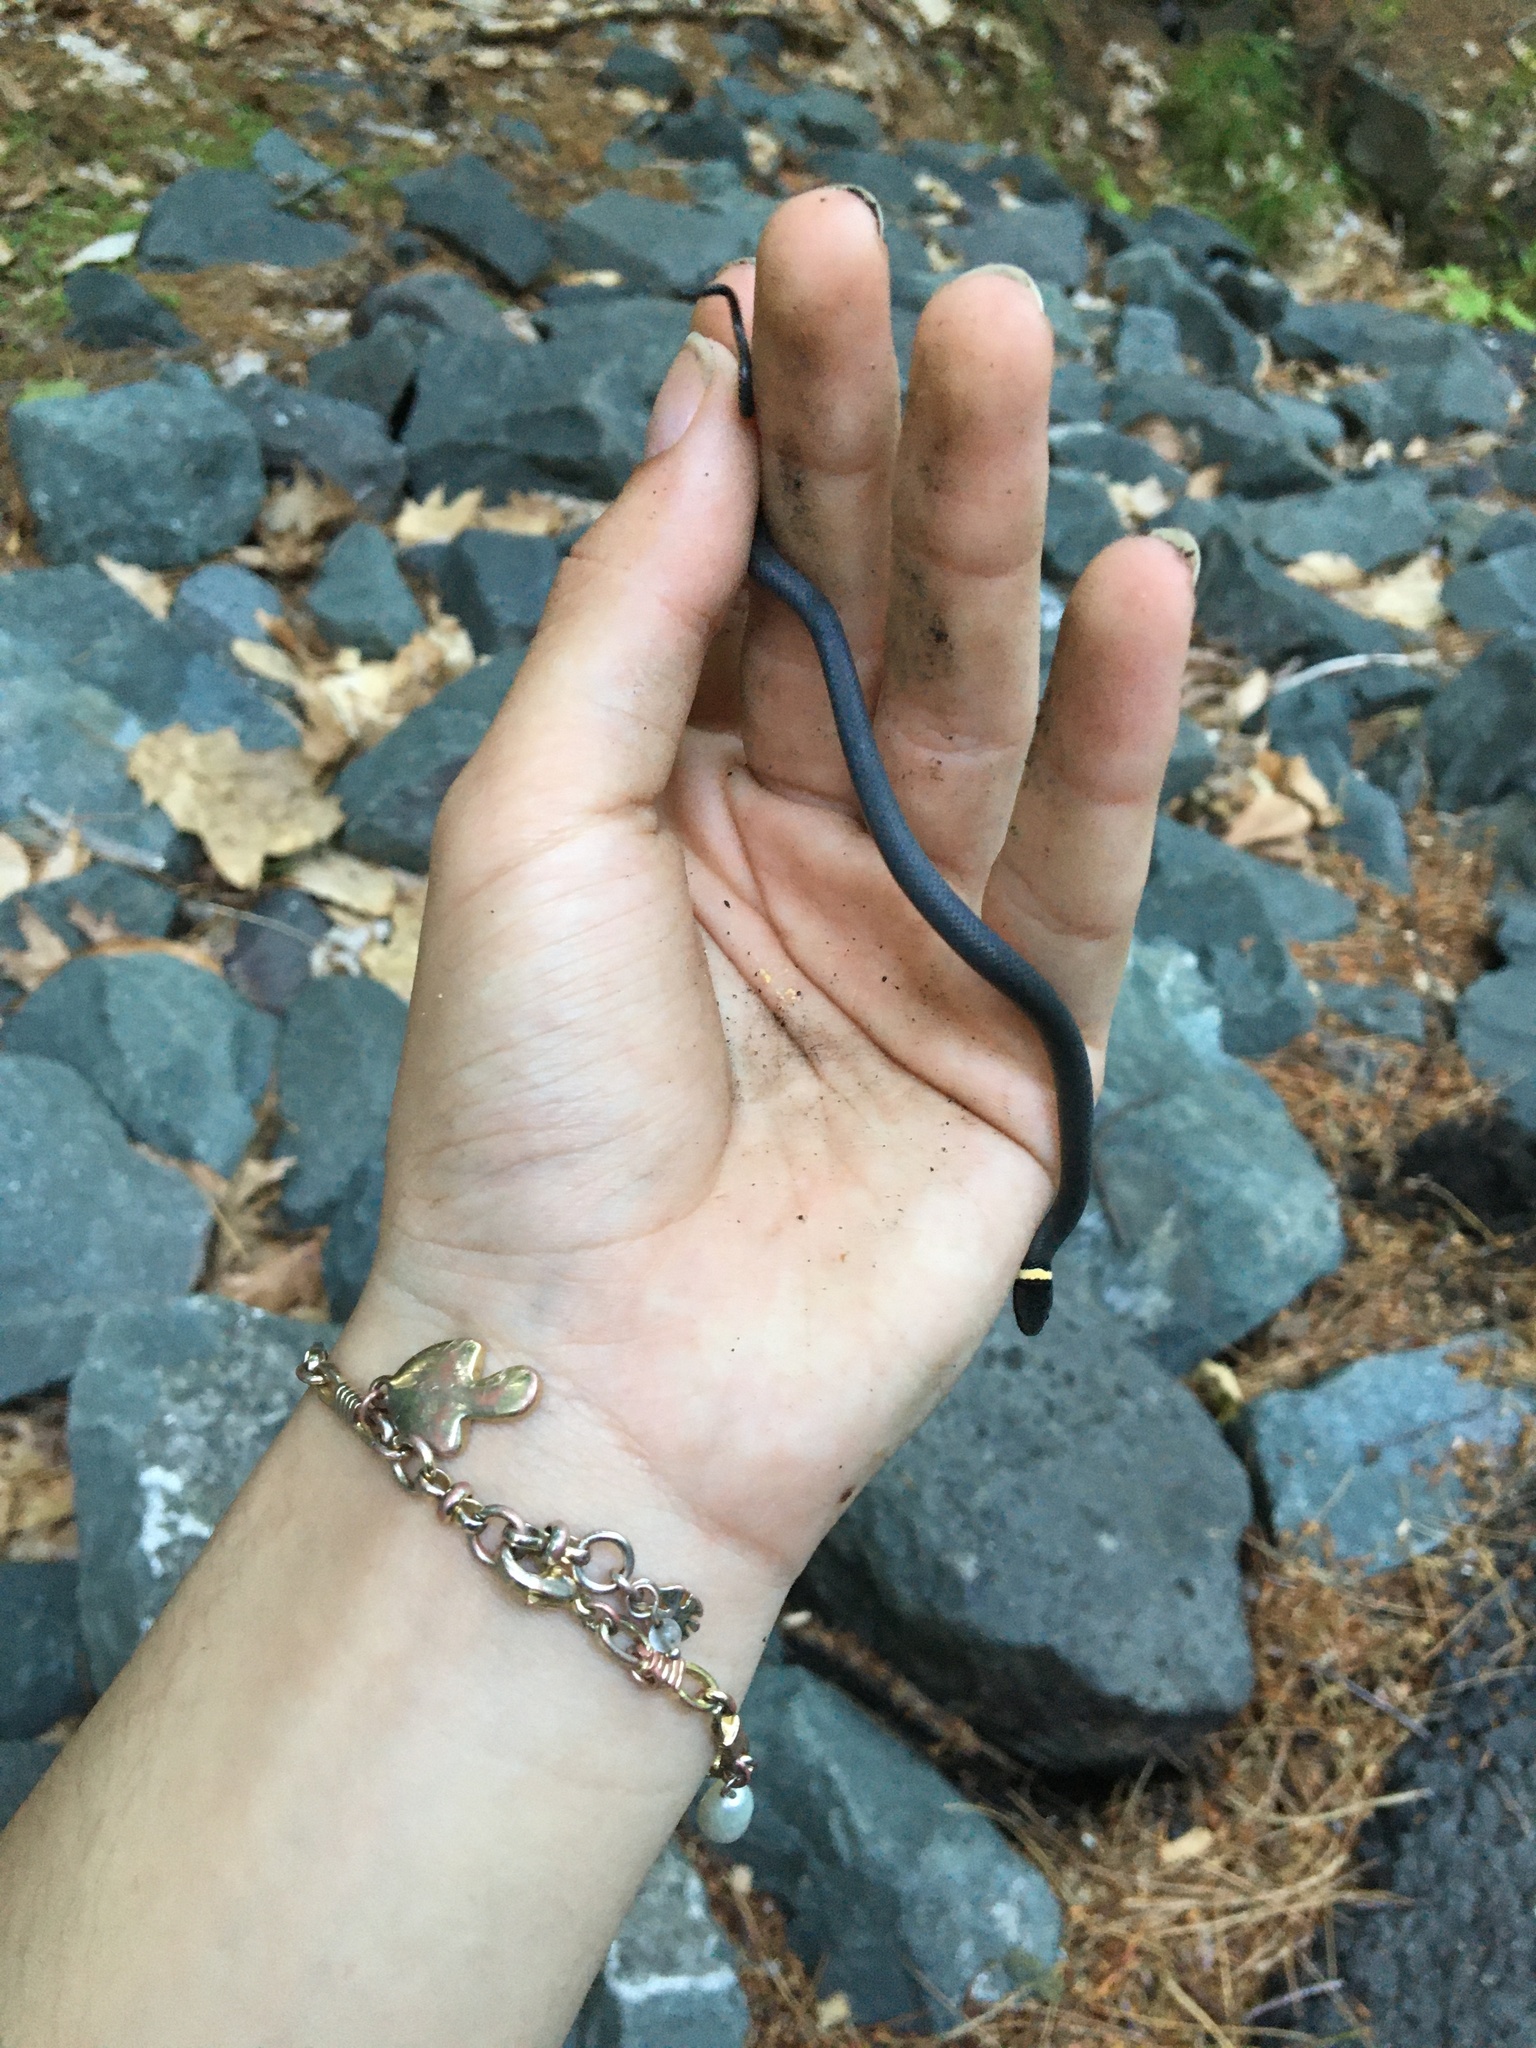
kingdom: Animalia
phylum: Chordata
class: Squamata
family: Colubridae
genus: Diadophis
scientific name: Diadophis punctatus
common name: Ringneck snake
